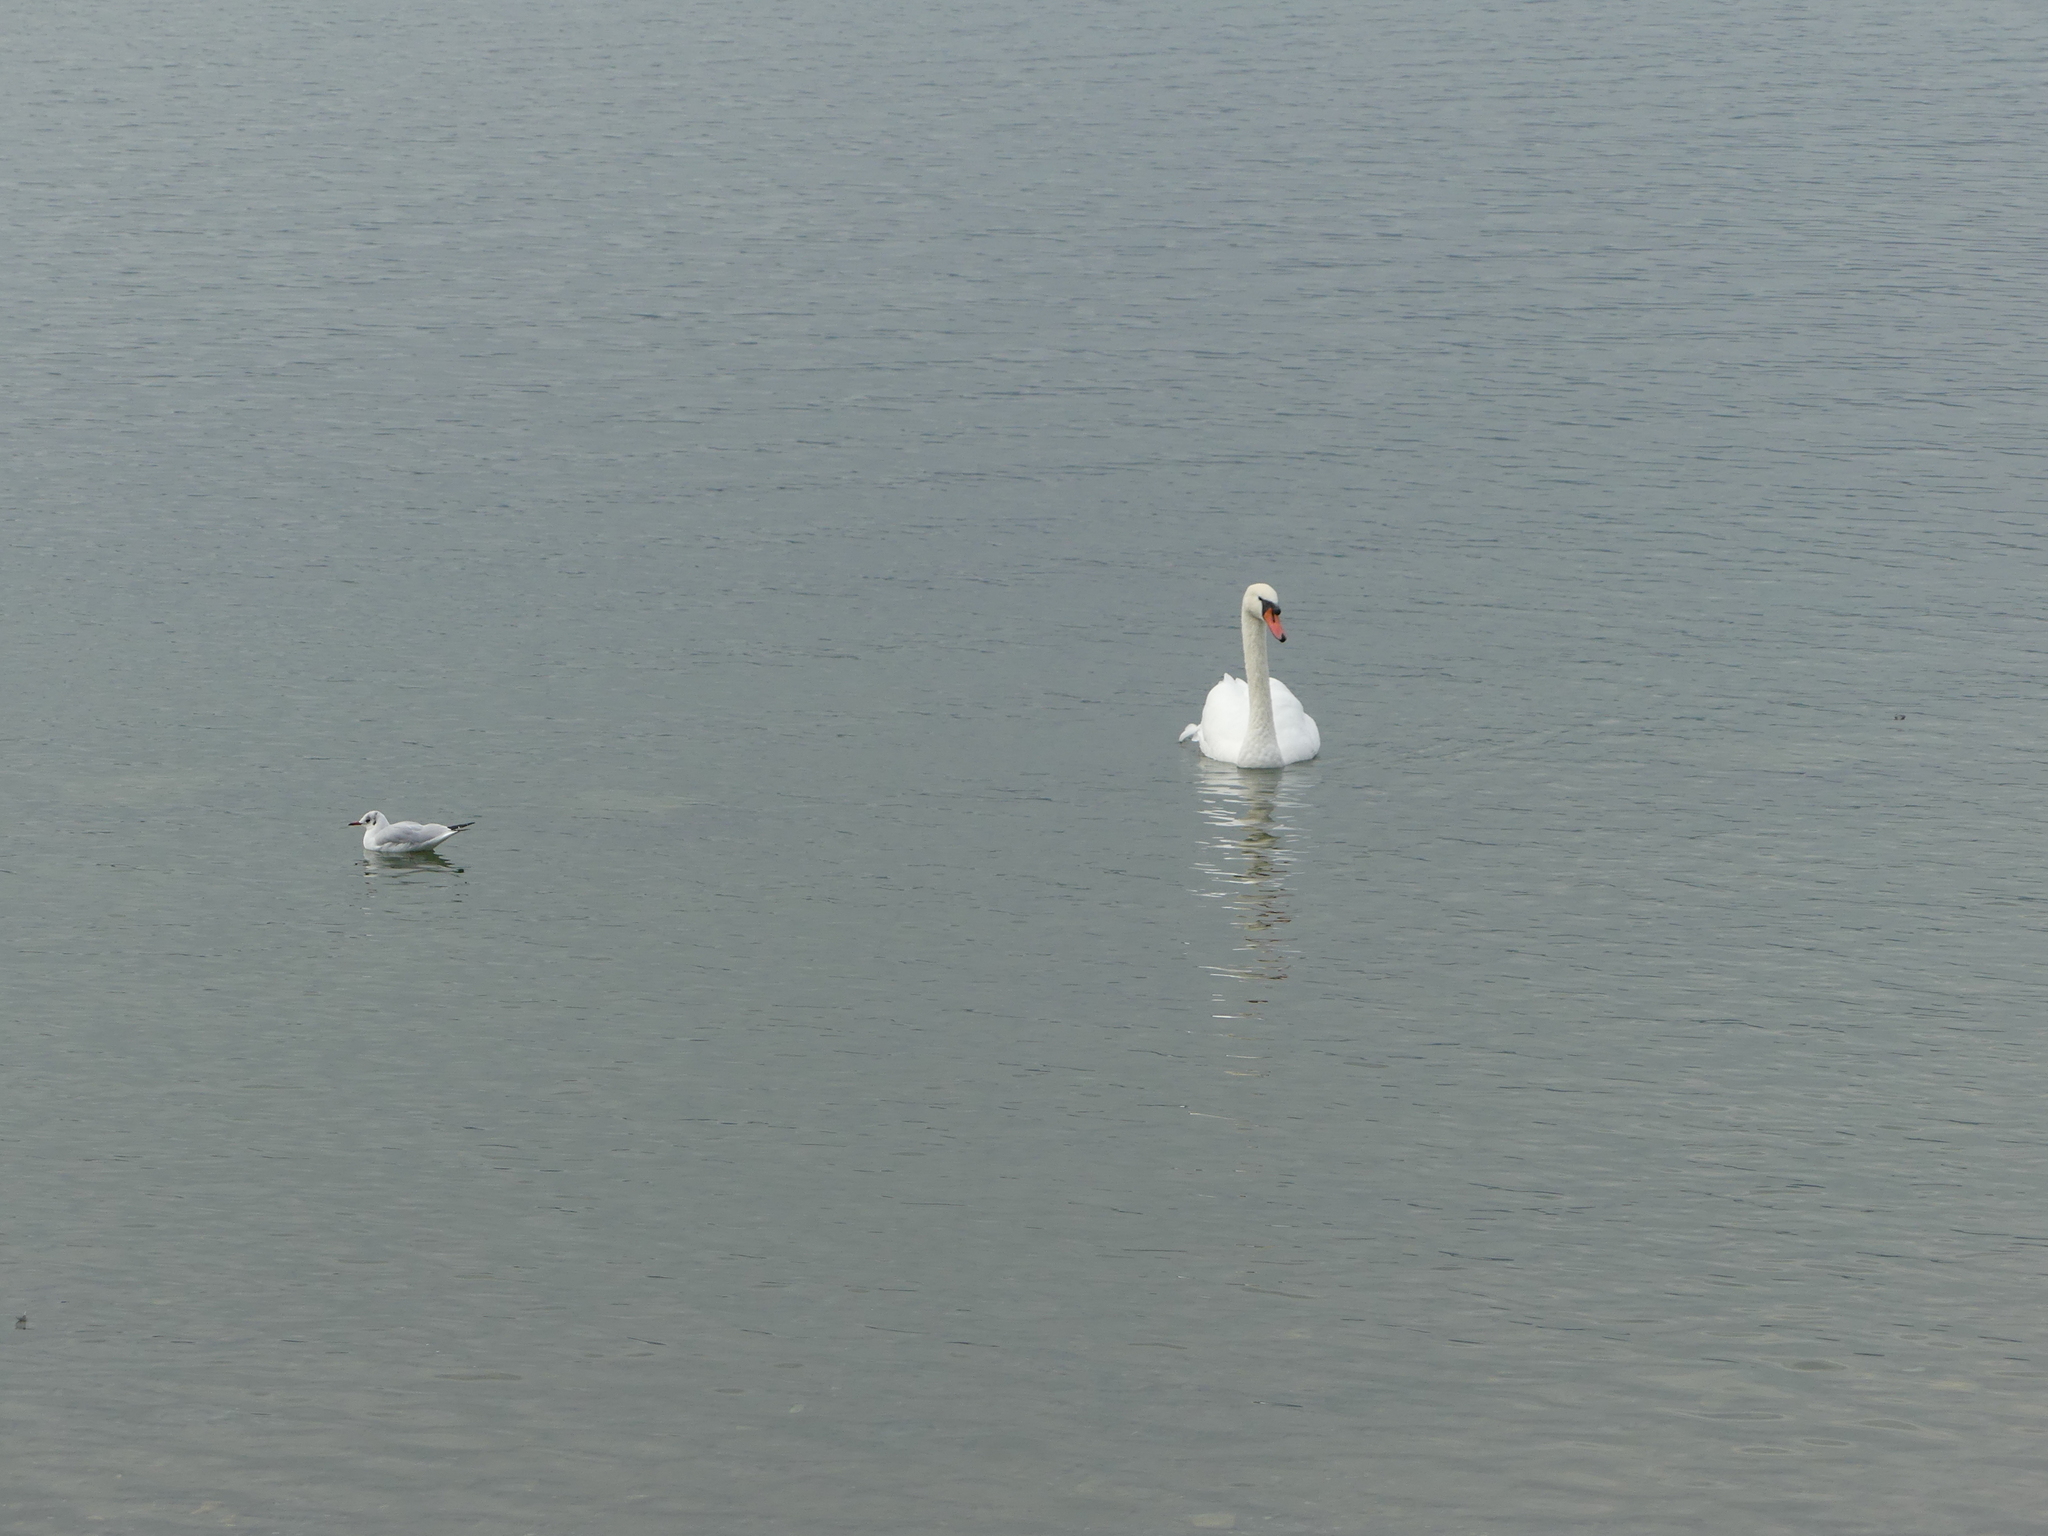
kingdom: Animalia
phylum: Chordata
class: Aves
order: Charadriiformes
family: Laridae
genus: Chroicocephalus
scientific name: Chroicocephalus ridibundus
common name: Black-headed gull
